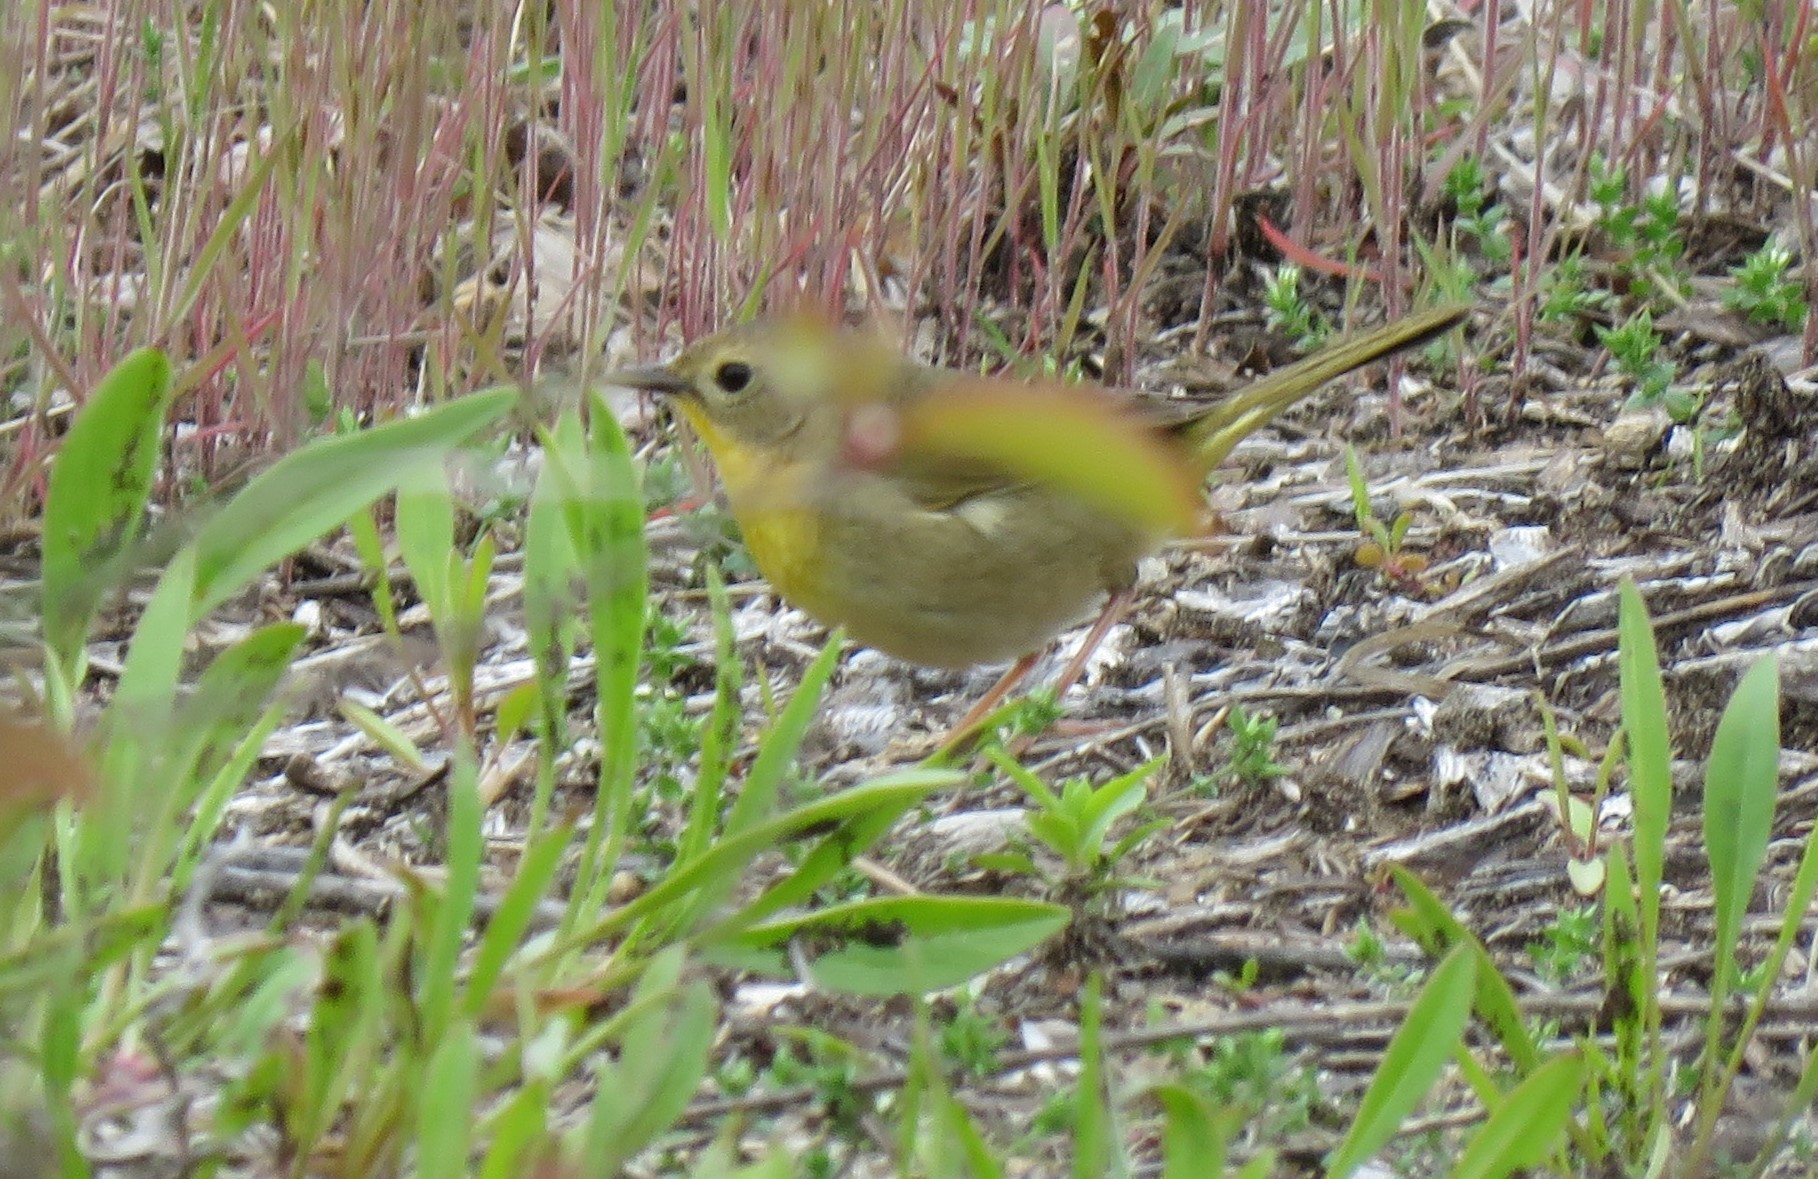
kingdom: Animalia
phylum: Chordata
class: Aves
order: Passeriformes
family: Parulidae
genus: Geothlypis
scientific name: Geothlypis trichas
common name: Common yellowthroat
